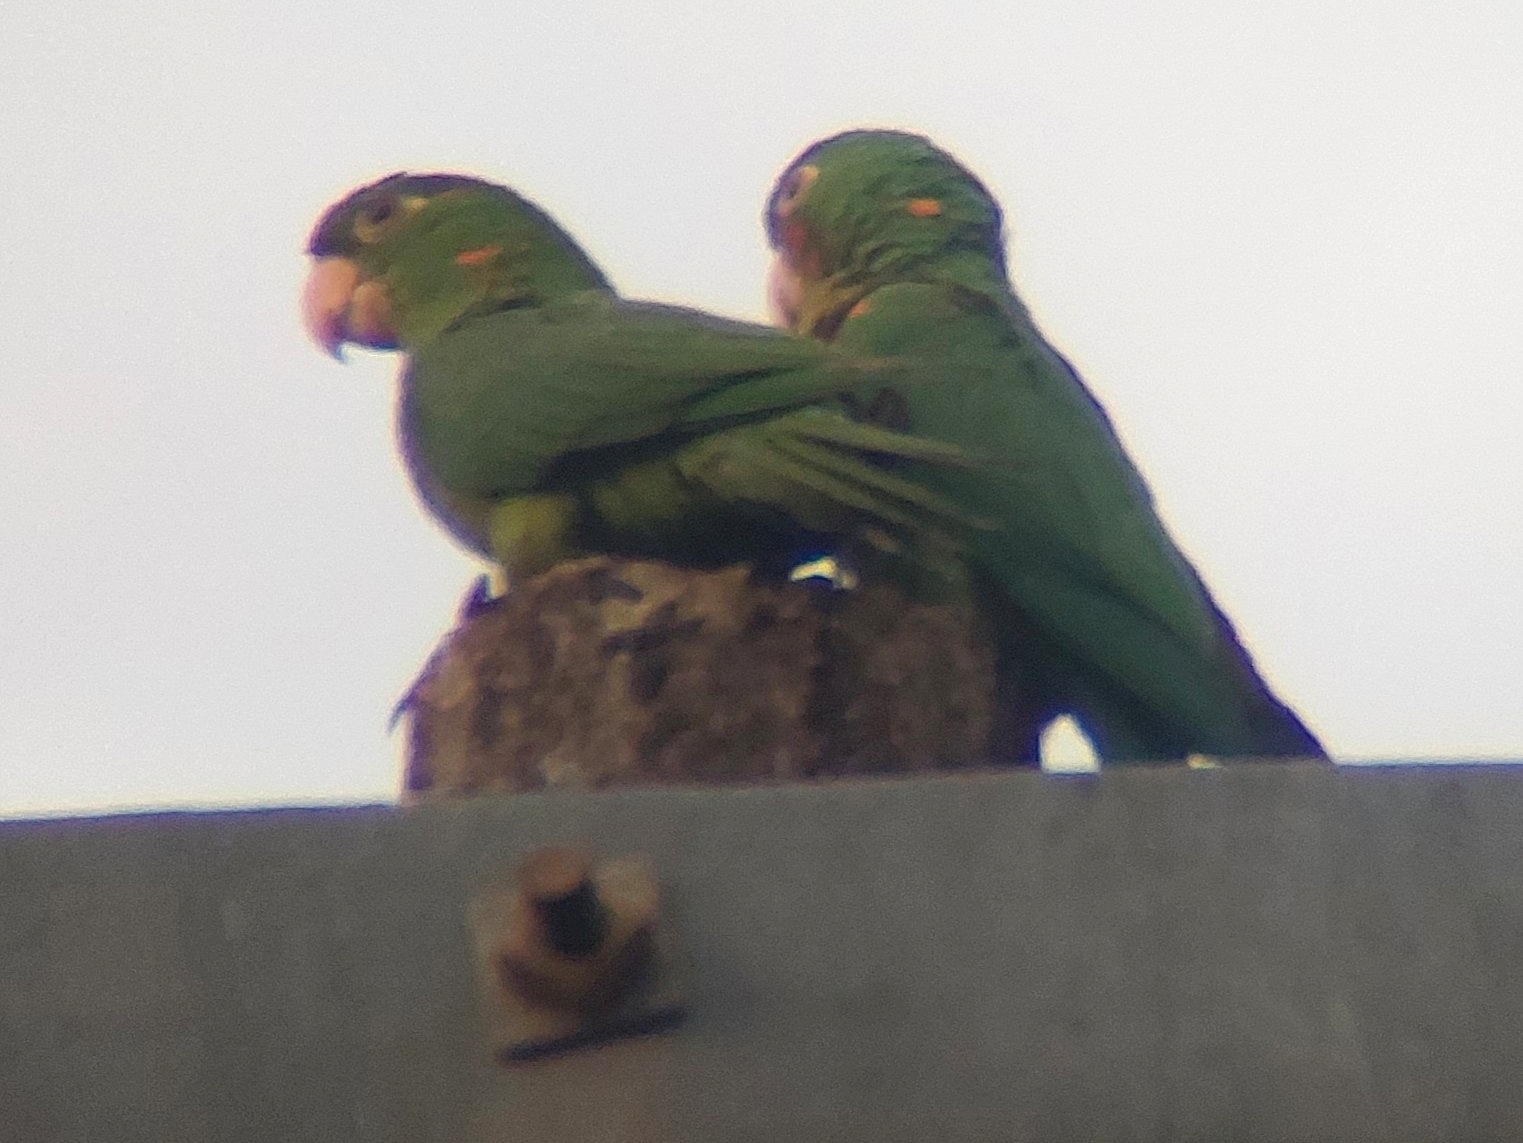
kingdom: Animalia
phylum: Chordata
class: Aves
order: Psittaciformes
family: Psittacidae
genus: Aratinga
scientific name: Aratinga leucophthalma
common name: White-eyed parakeet
